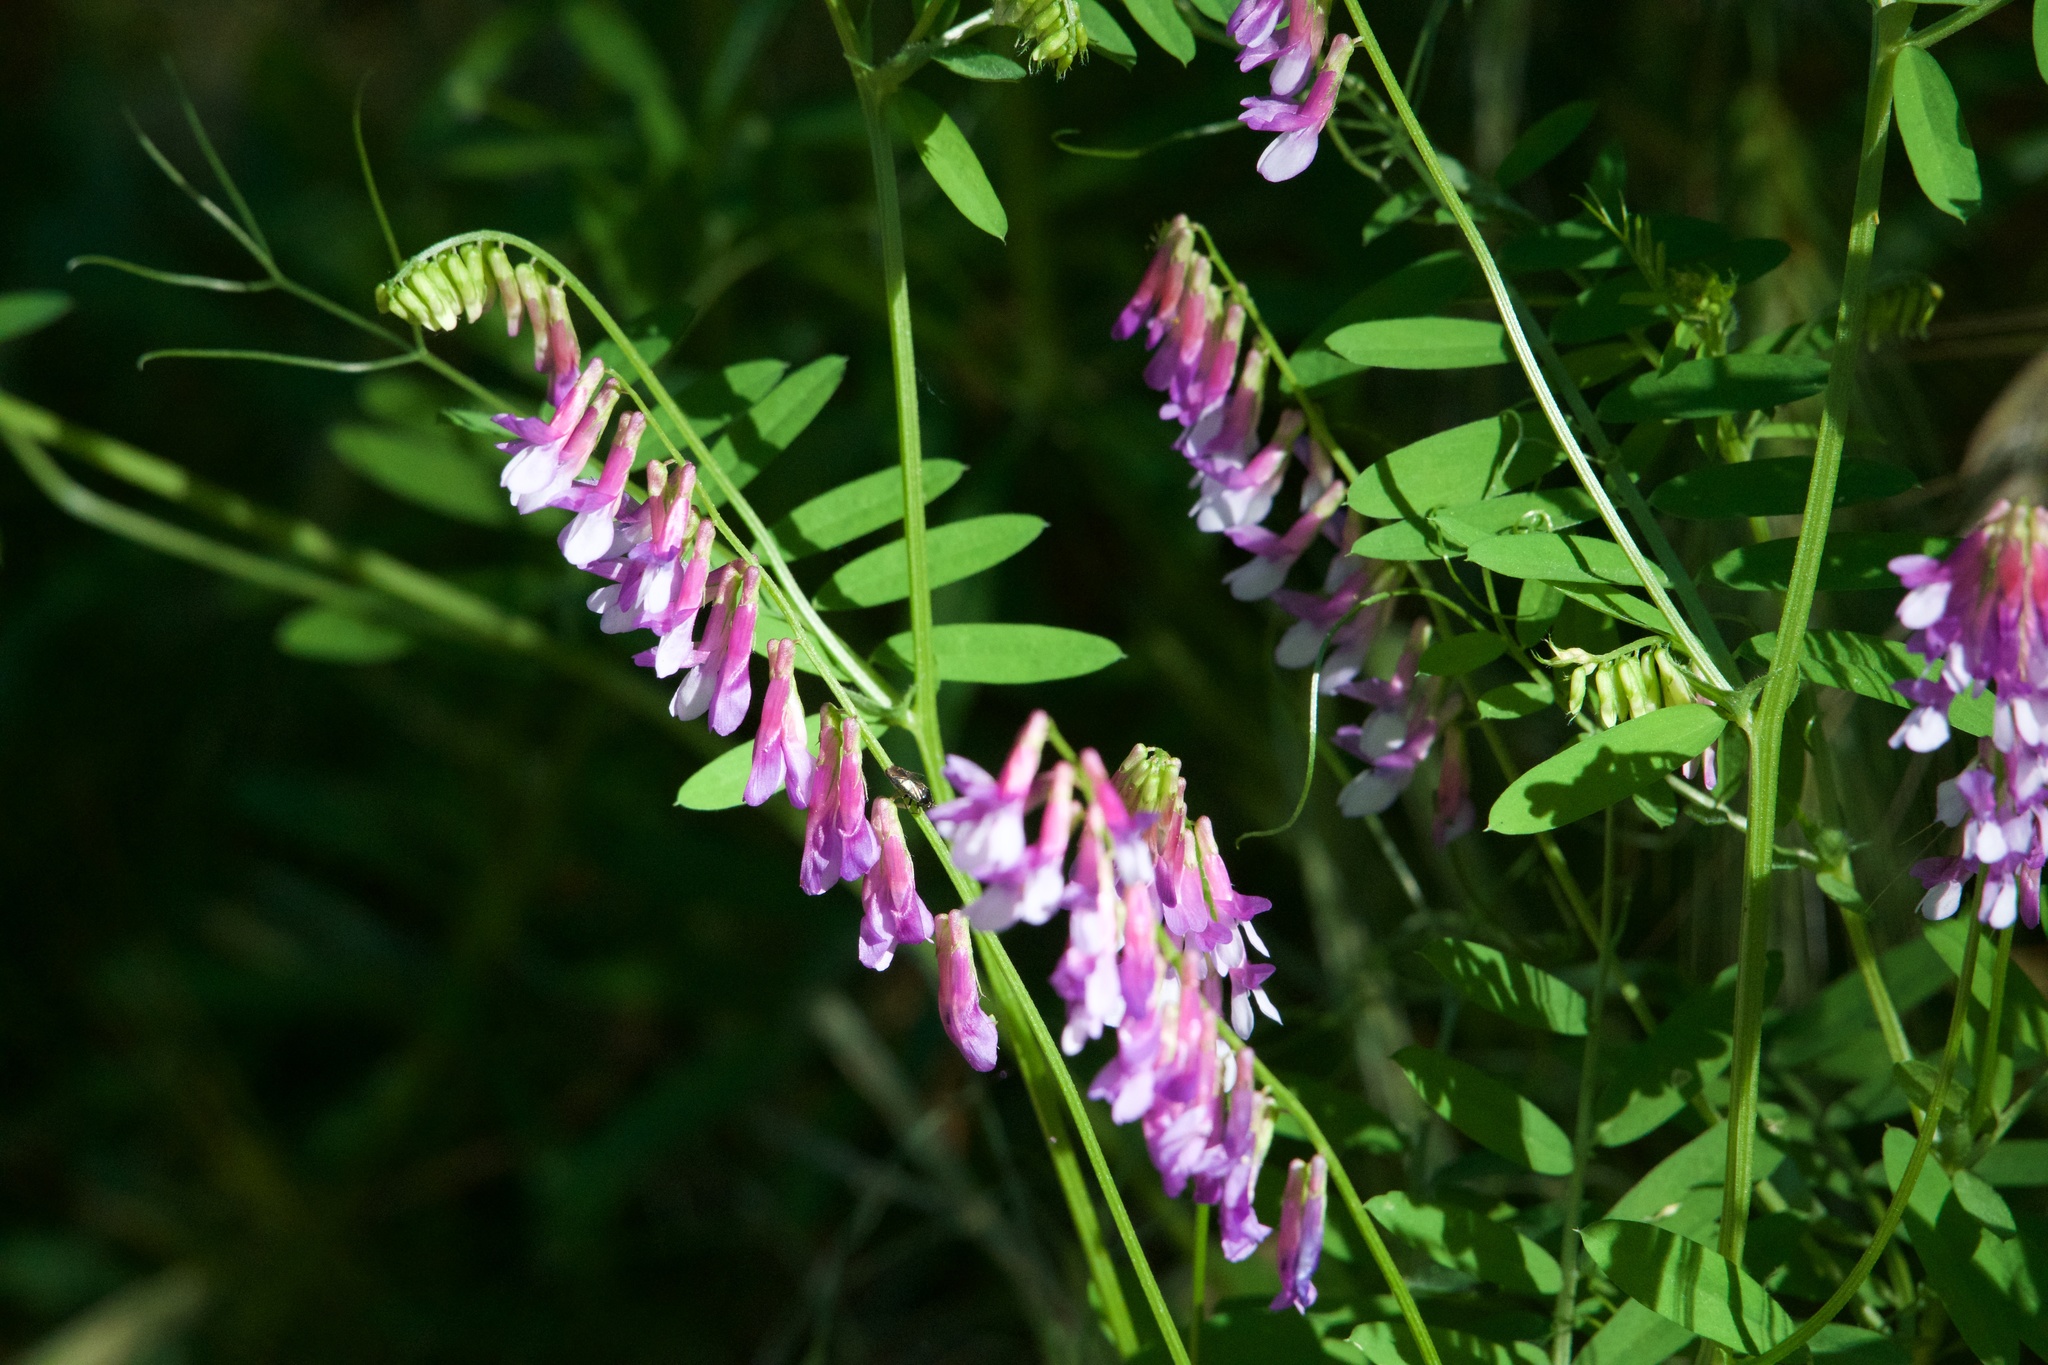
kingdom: Plantae
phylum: Tracheophyta
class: Magnoliopsida
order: Fabales
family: Fabaceae
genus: Vicia
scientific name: Vicia villosa
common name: Fodder vetch
